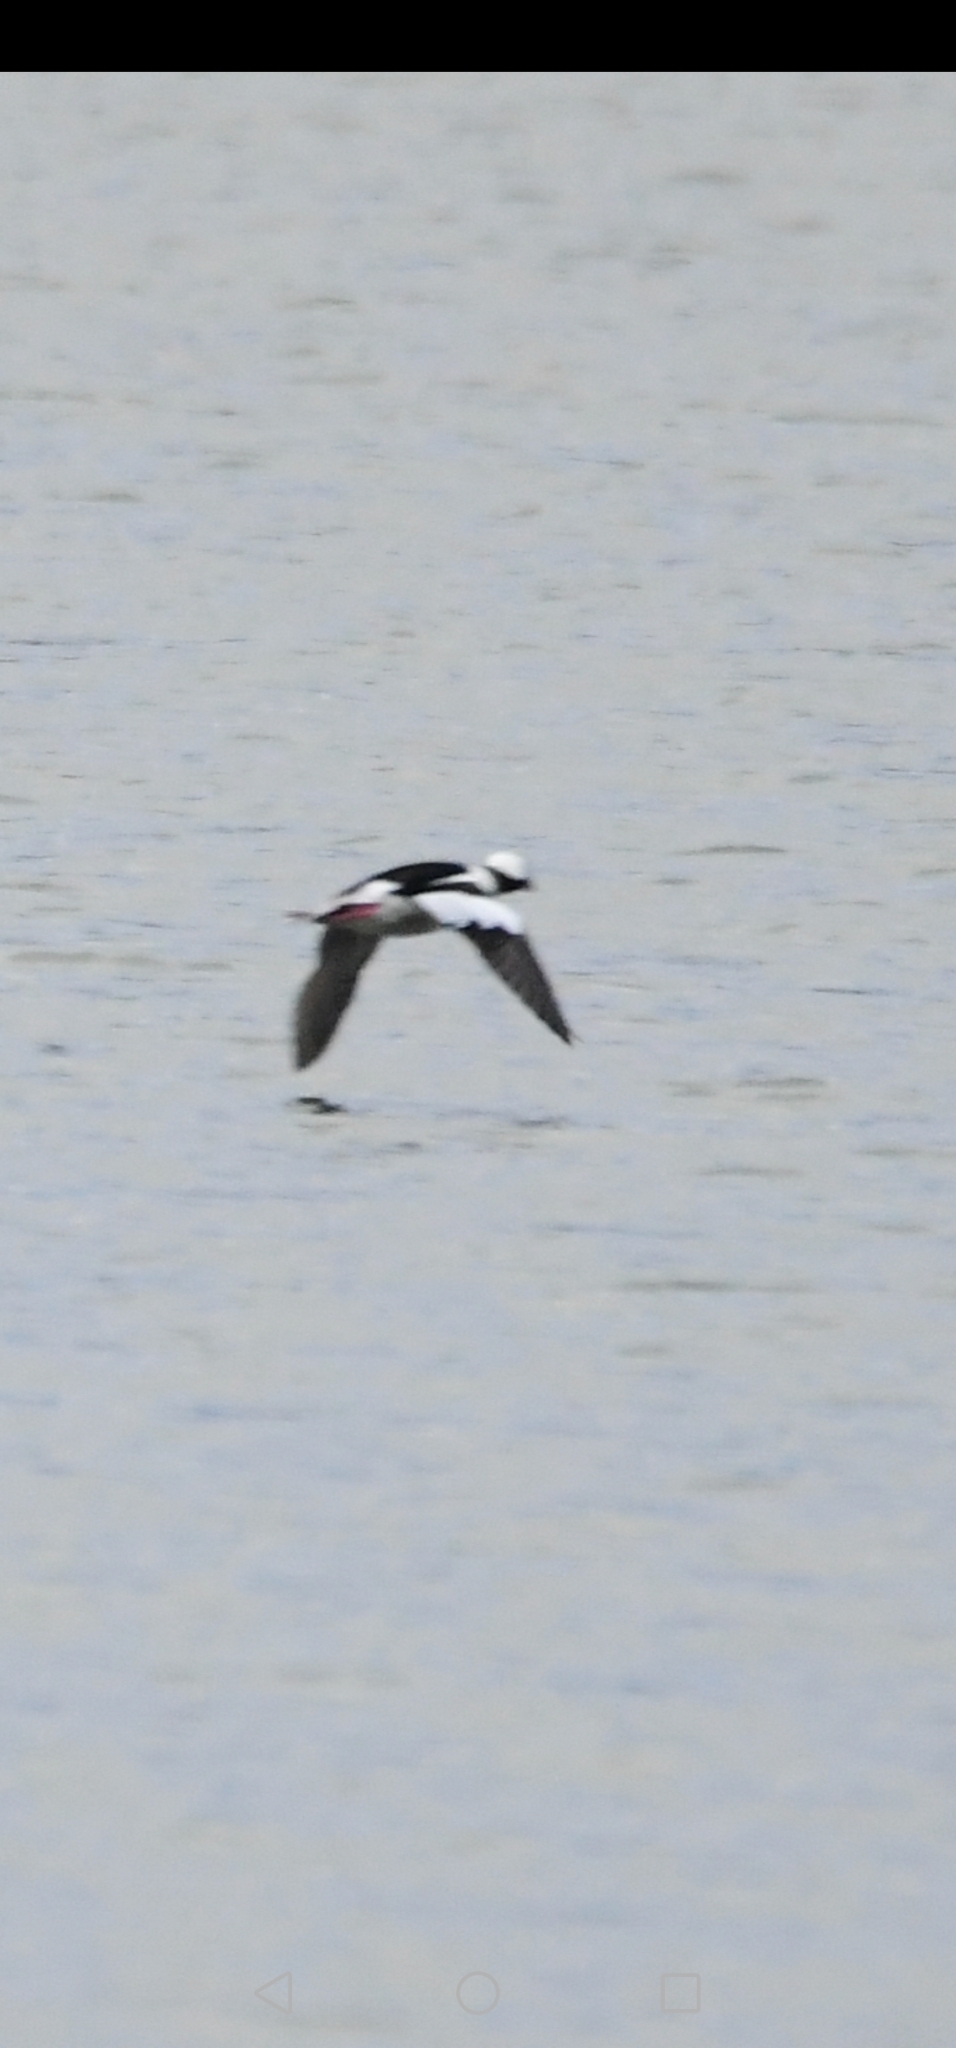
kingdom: Animalia
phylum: Chordata
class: Aves
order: Anseriformes
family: Anatidae
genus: Bucephala
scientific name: Bucephala albeola
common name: Bufflehead
